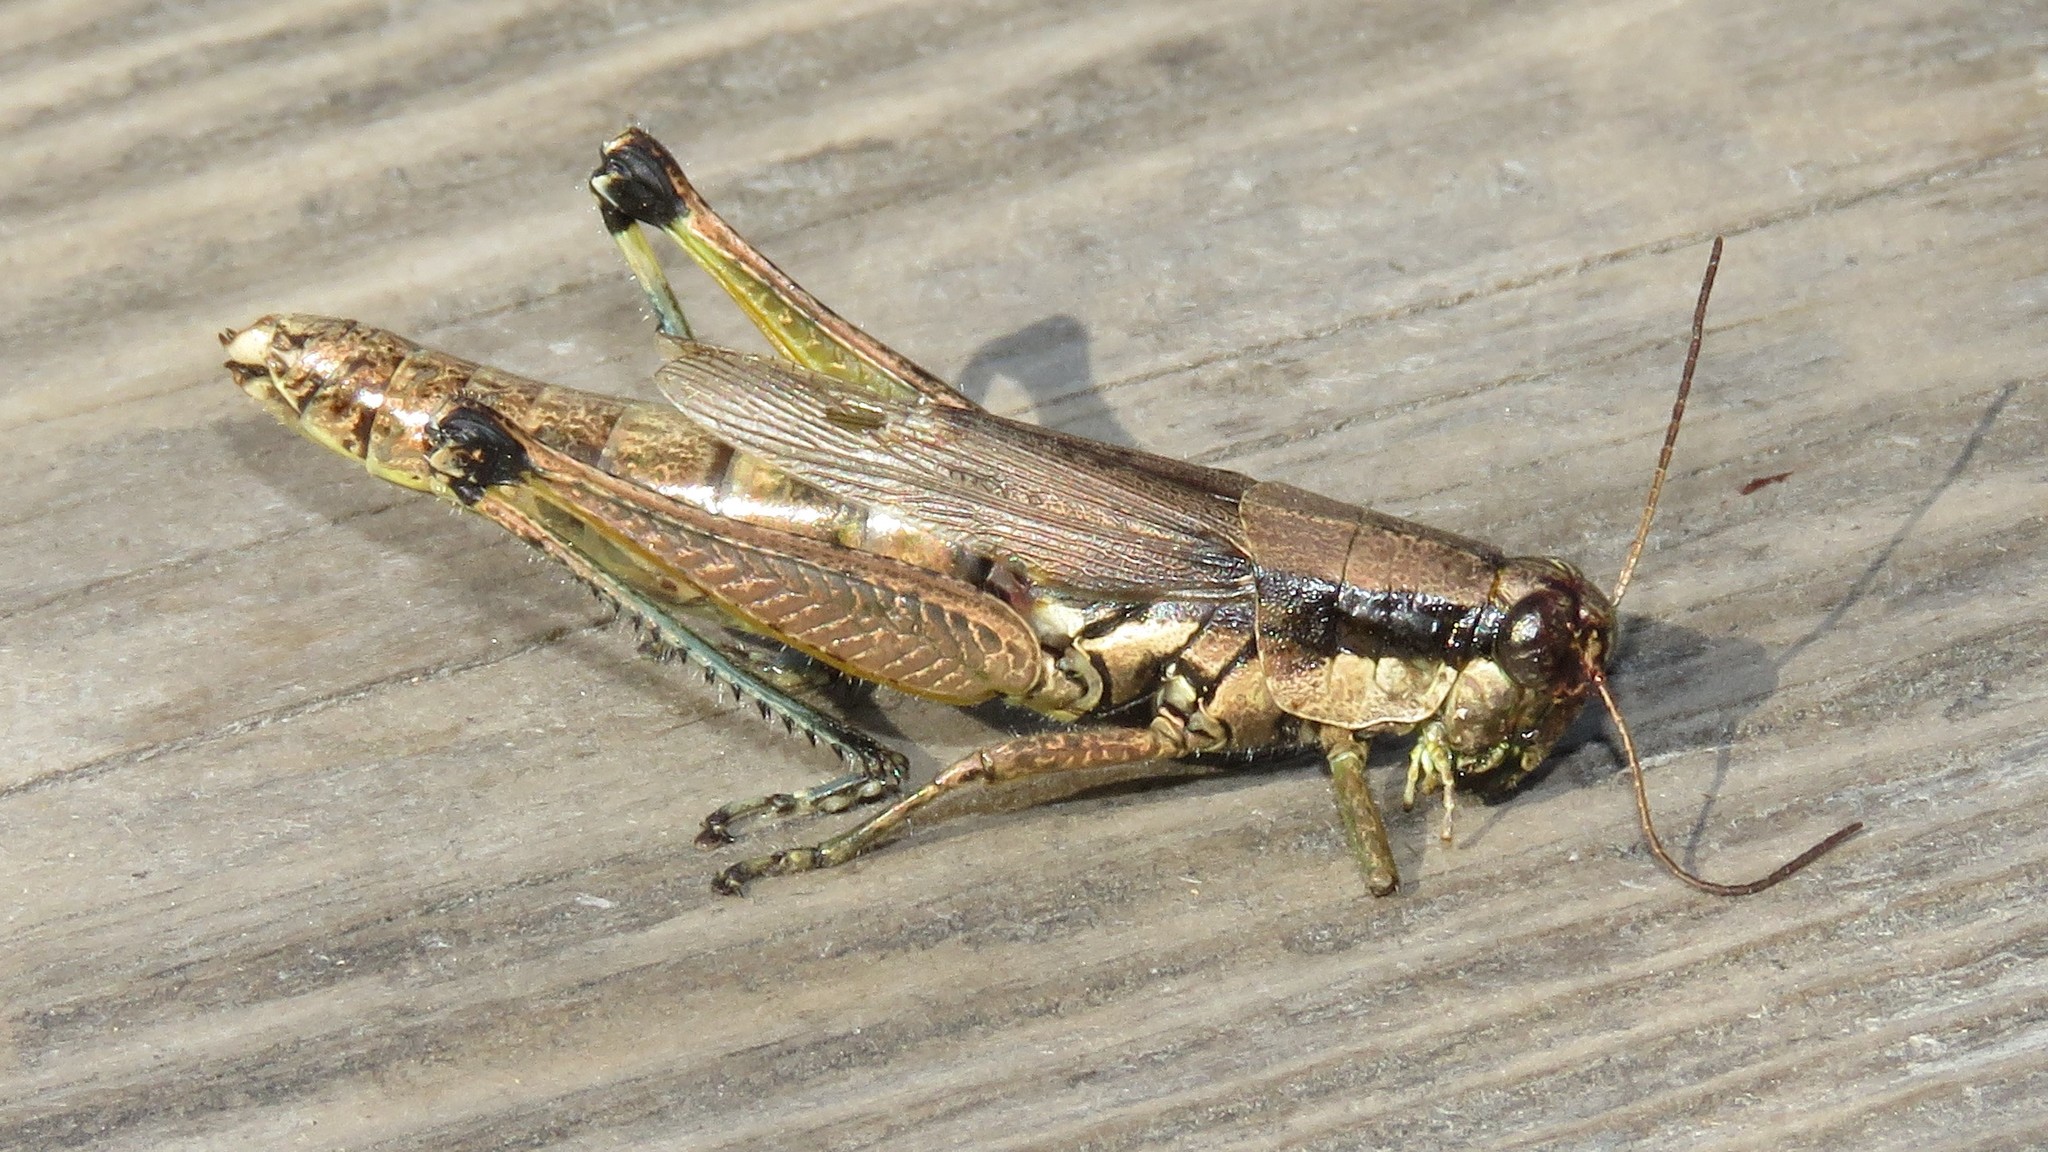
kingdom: Animalia
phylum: Arthropoda
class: Insecta
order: Orthoptera
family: Acrididae
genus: Paroxya
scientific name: Paroxya hoosieri
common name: Hoosier locust
